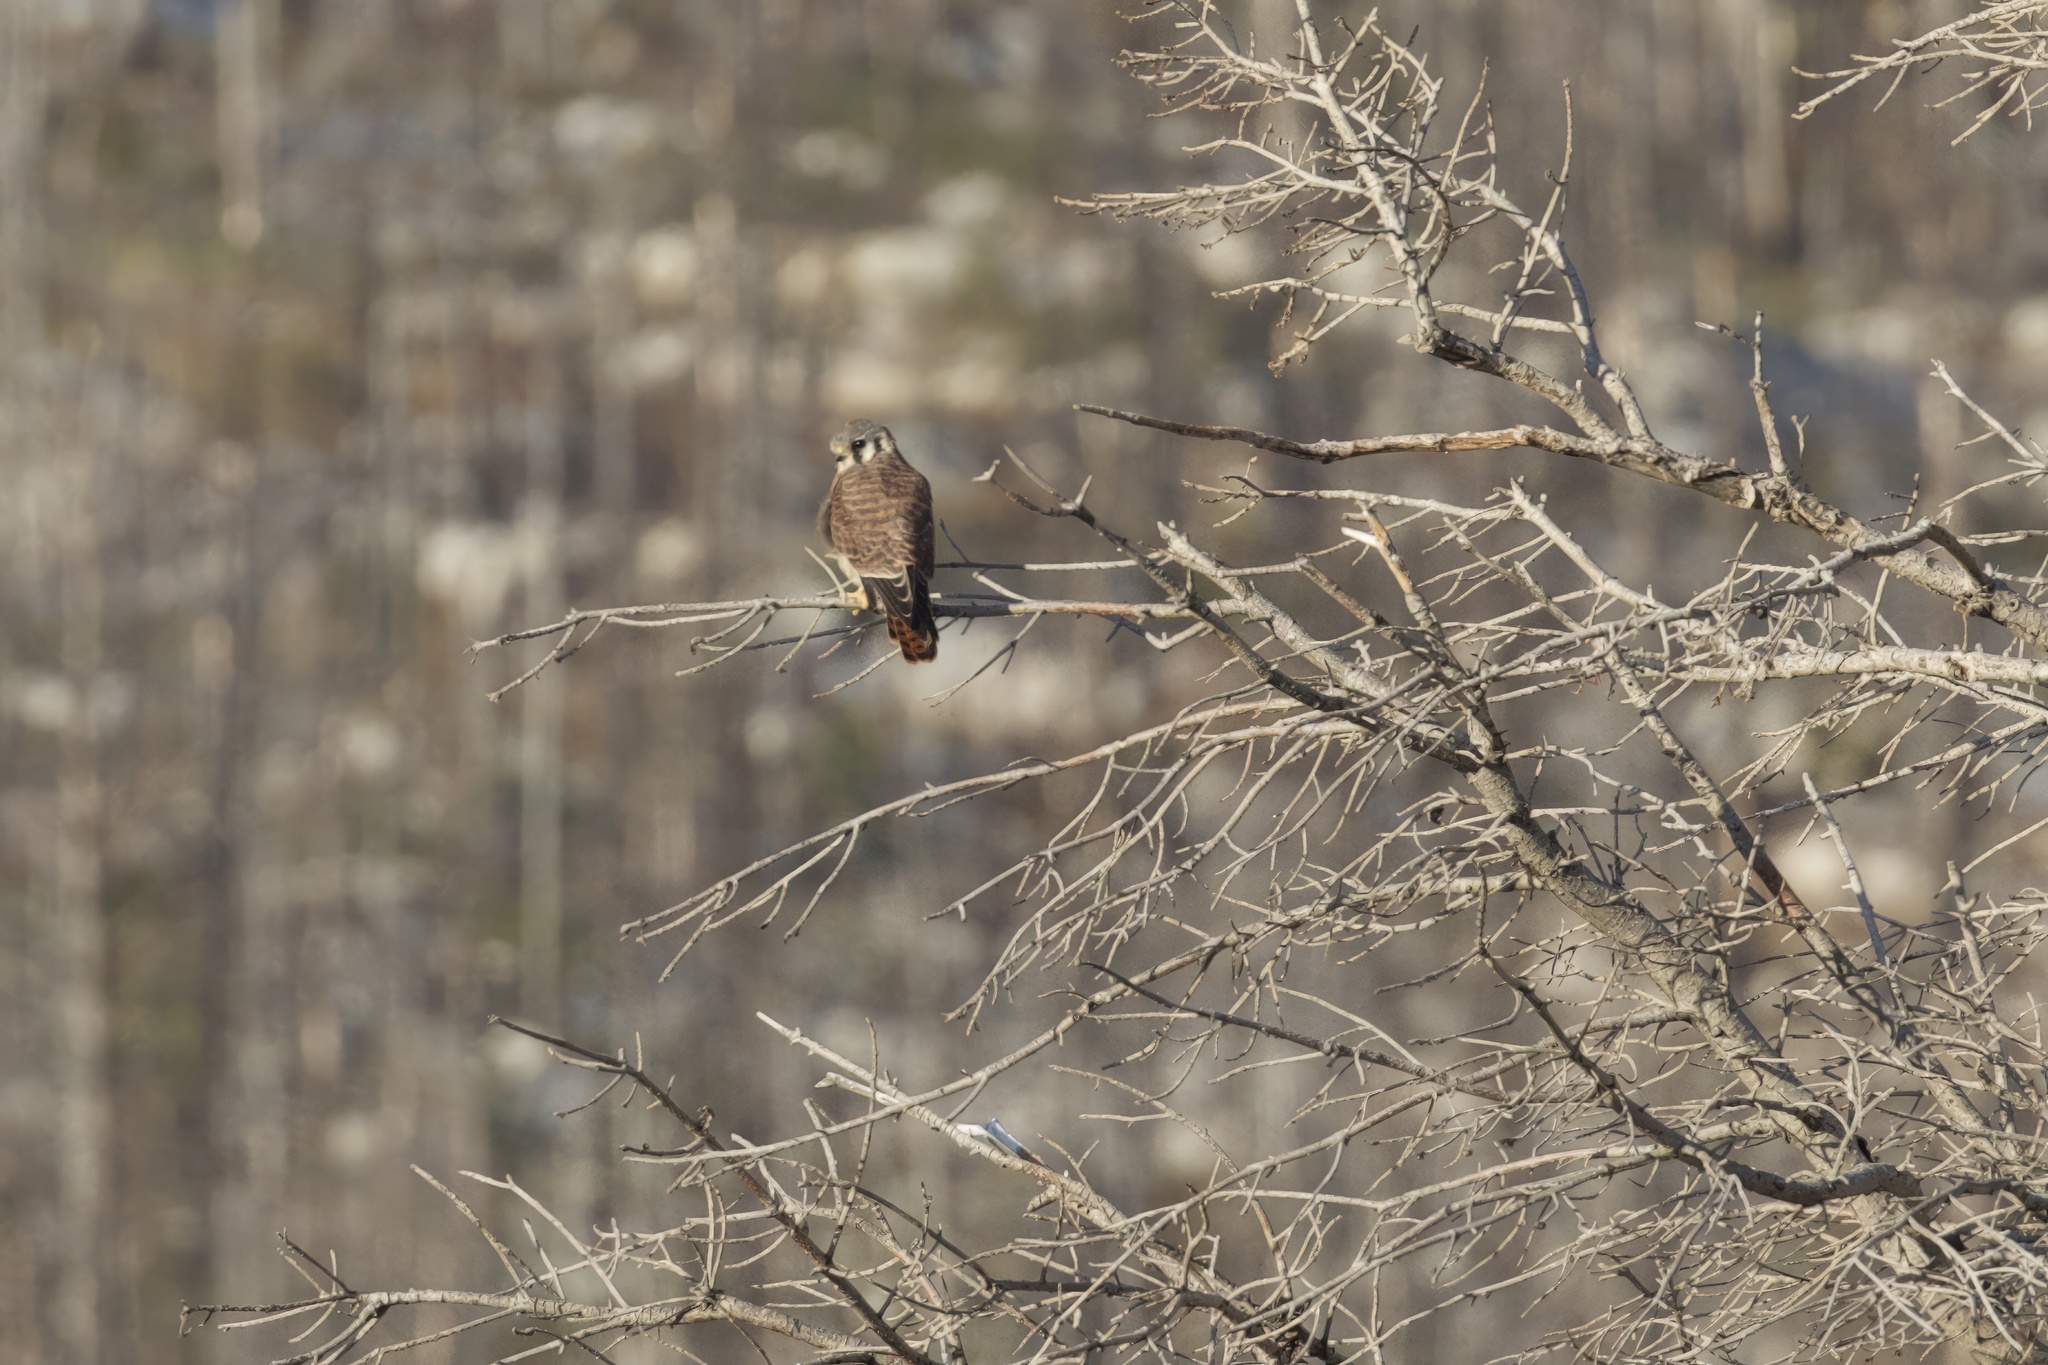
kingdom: Animalia
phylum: Chordata
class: Aves
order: Falconiformes
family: Falconidae
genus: Falco
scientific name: Falco sparverius
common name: American kestrel
